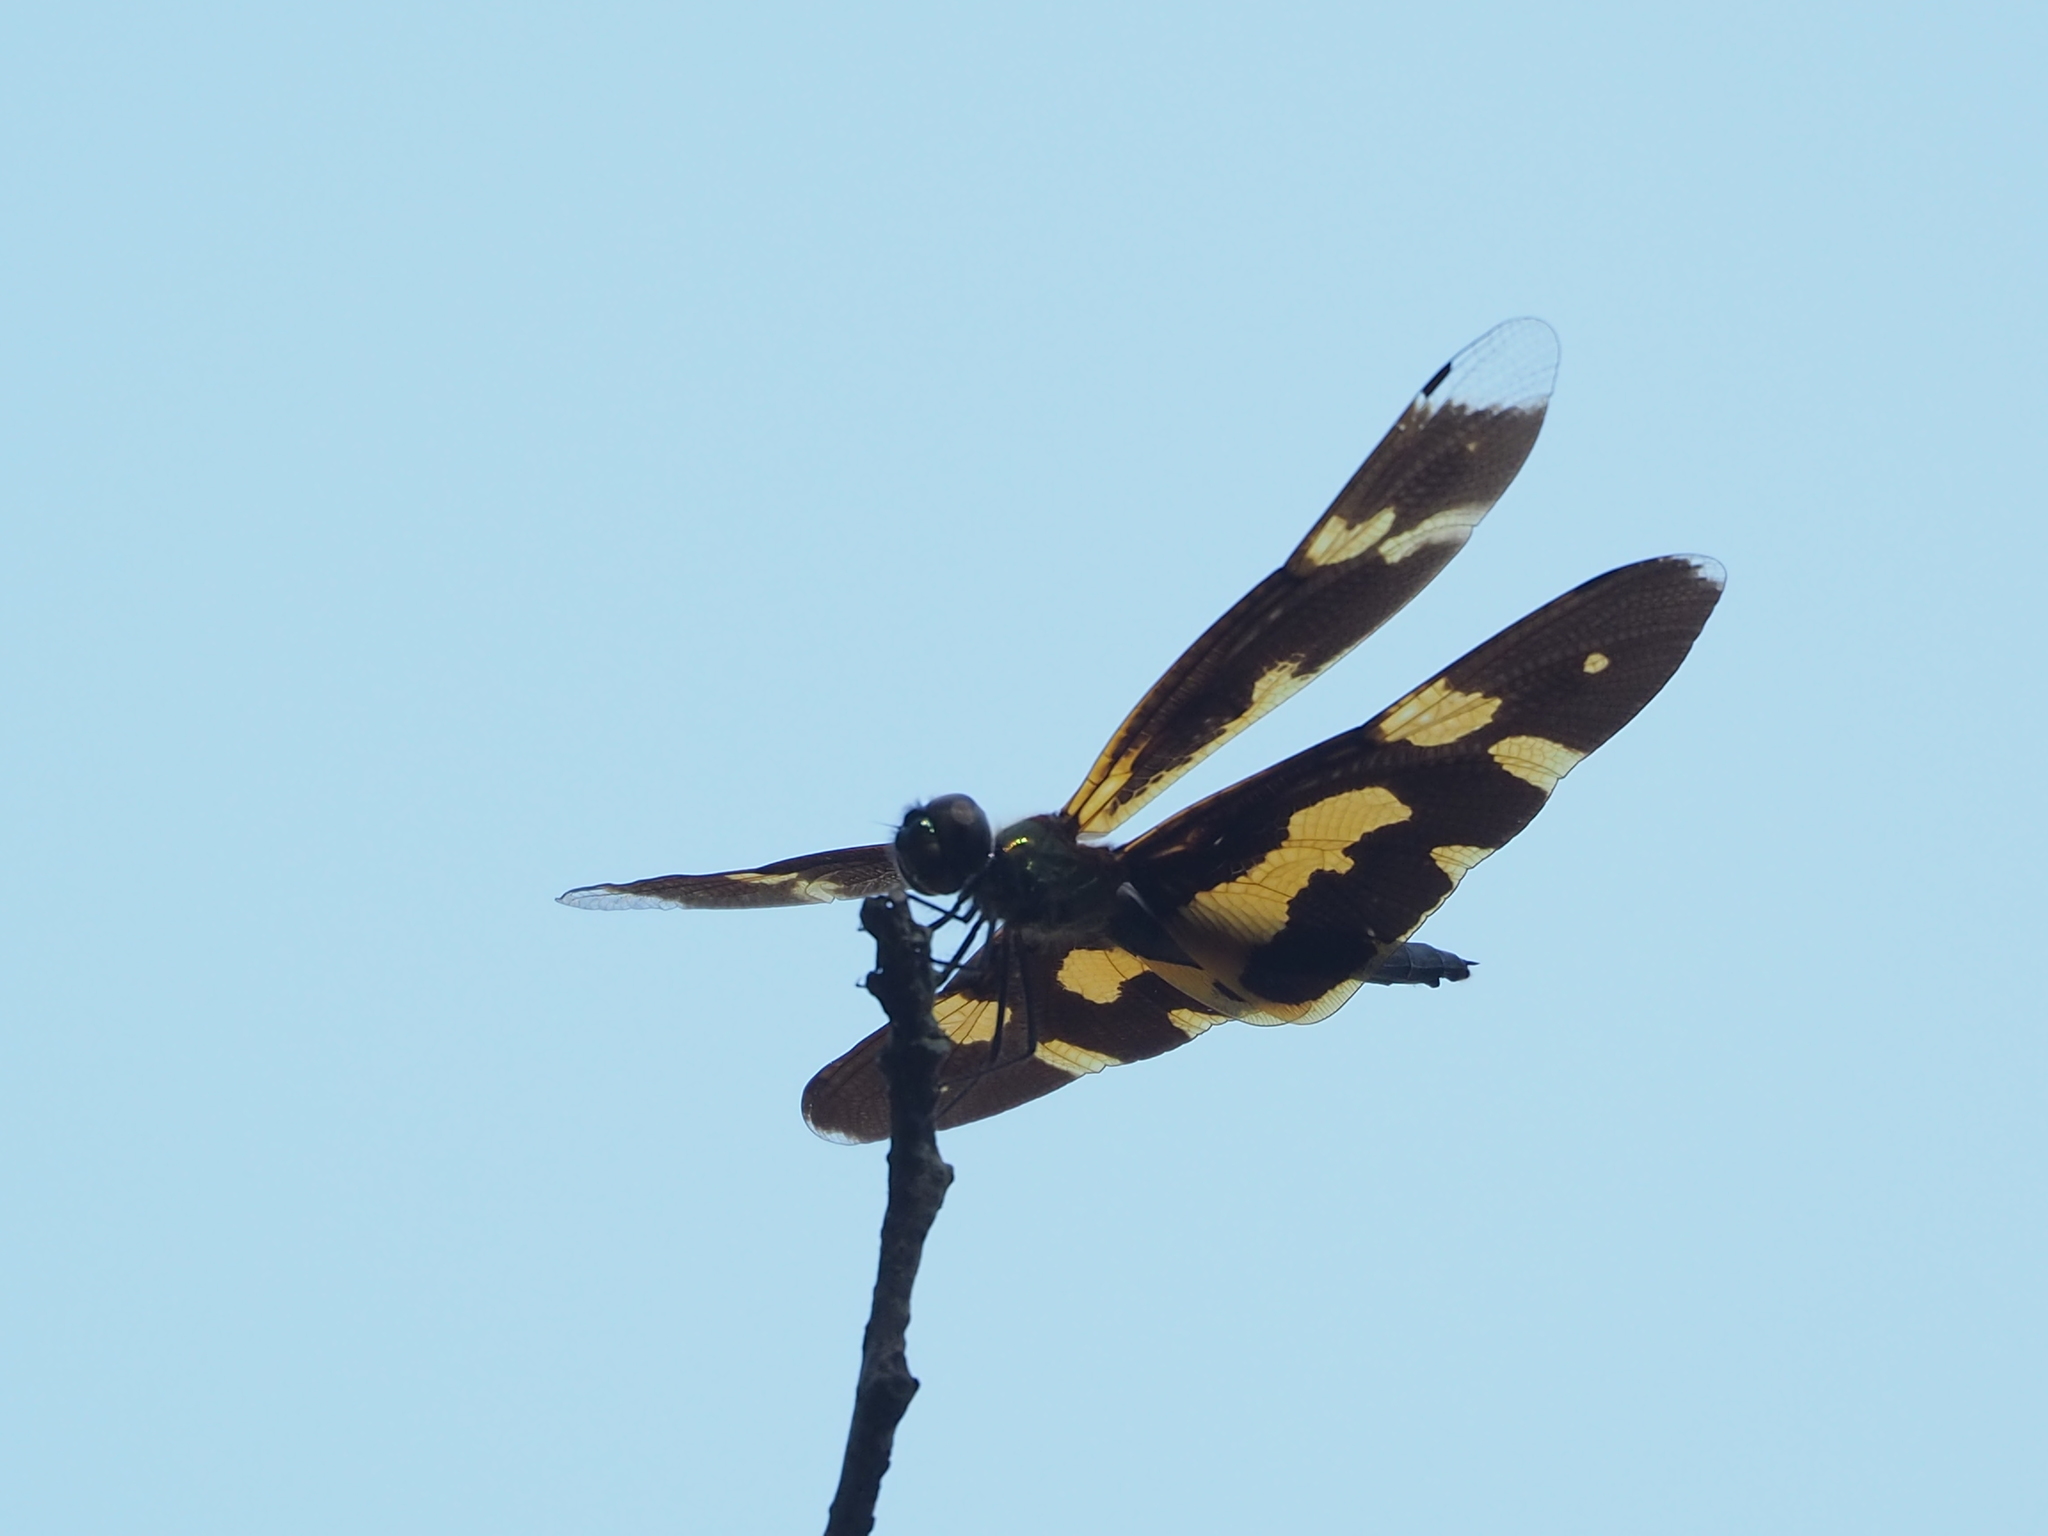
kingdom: Animalia
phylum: Arthropoda
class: Insecta
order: Odonata
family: Libellulidae
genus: Rhyothemis
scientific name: Rhyothemis variegata
